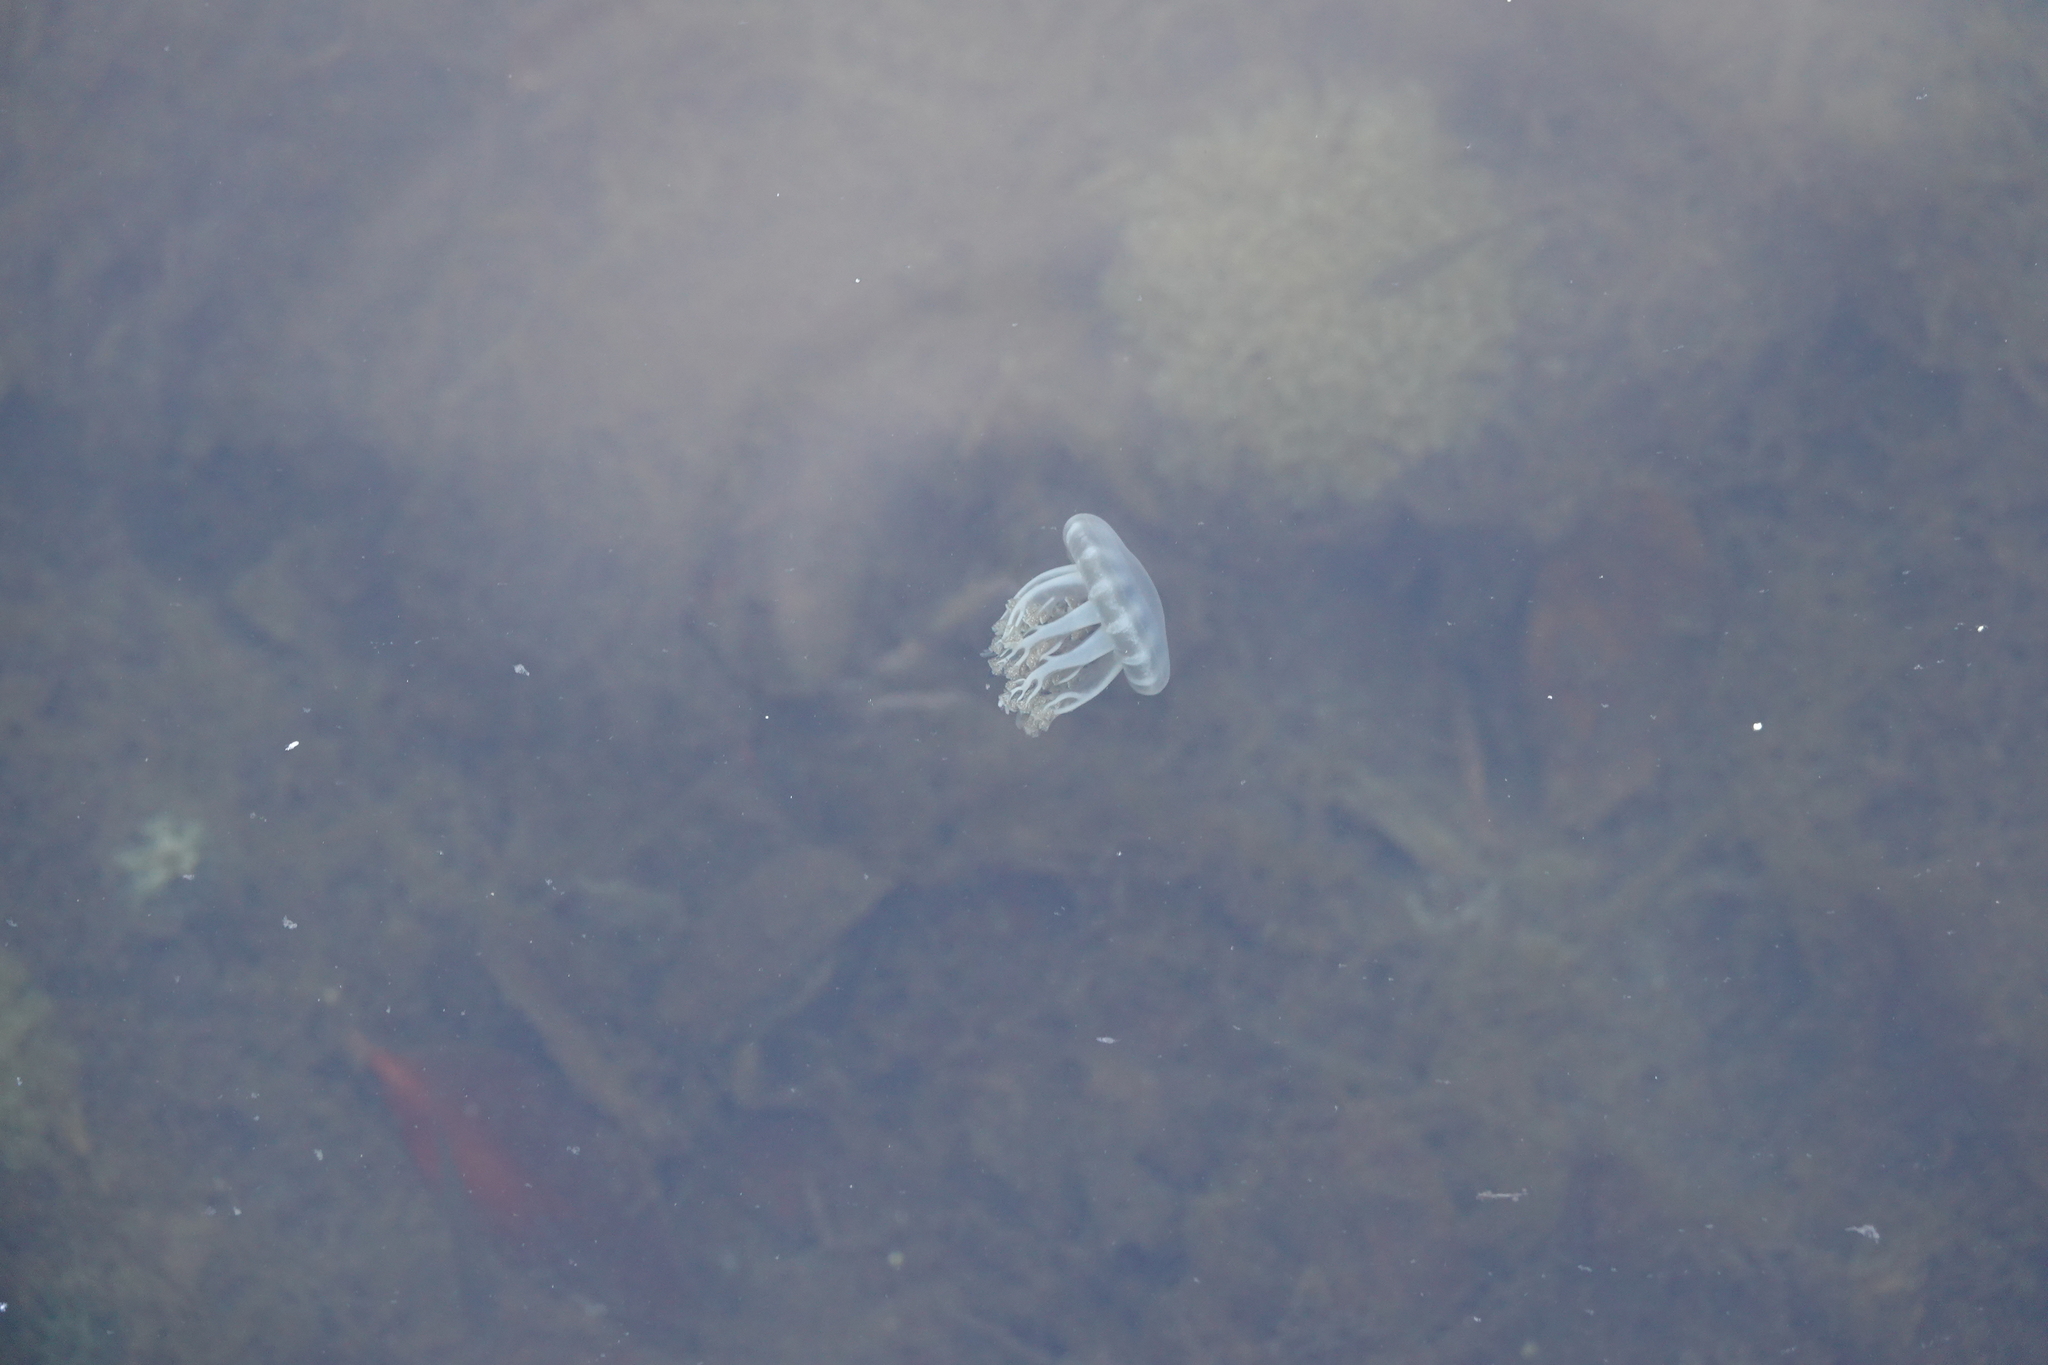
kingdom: Animalia
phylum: Cnidaria
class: Scyphozoa
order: Rhizostomeae
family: Cassiopeidae
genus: Cassiopea
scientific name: Cassiopea andromeda
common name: Upside-down jellyfish
